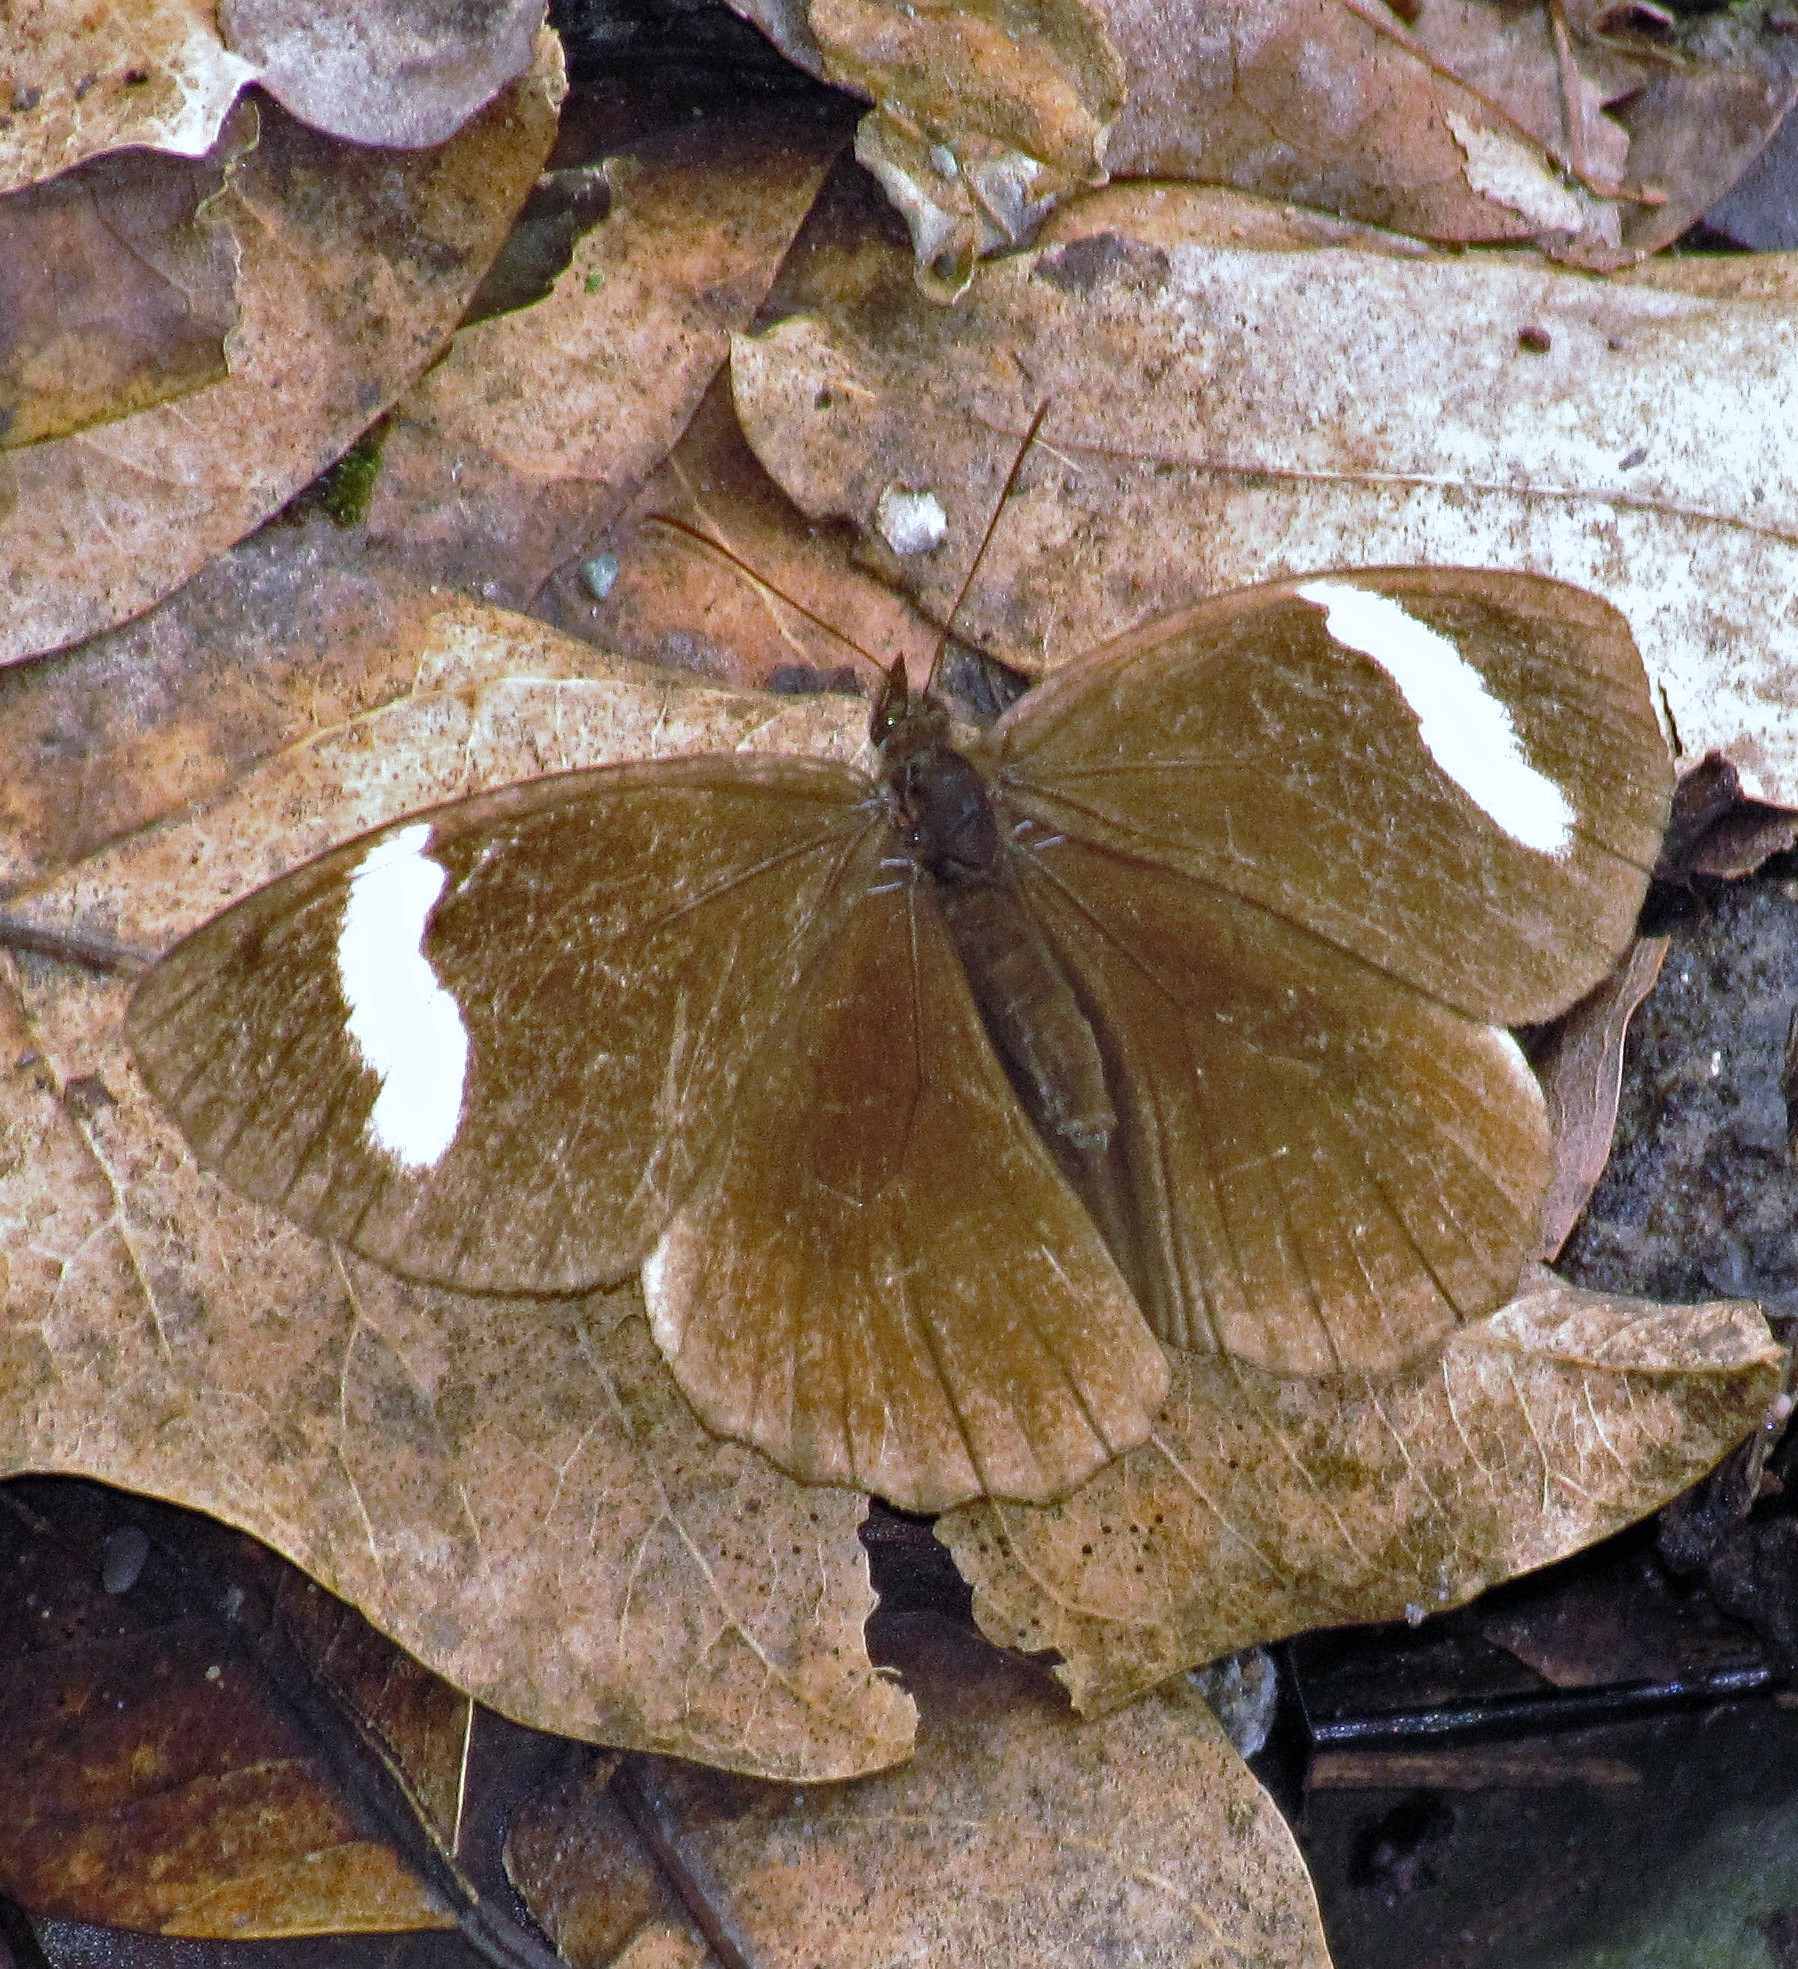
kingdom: Animalia
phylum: Arthropoda
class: Insecta
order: Lepidoptera
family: Nymphalidae
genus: Pedaliodes
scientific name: Pedaliodes porina
